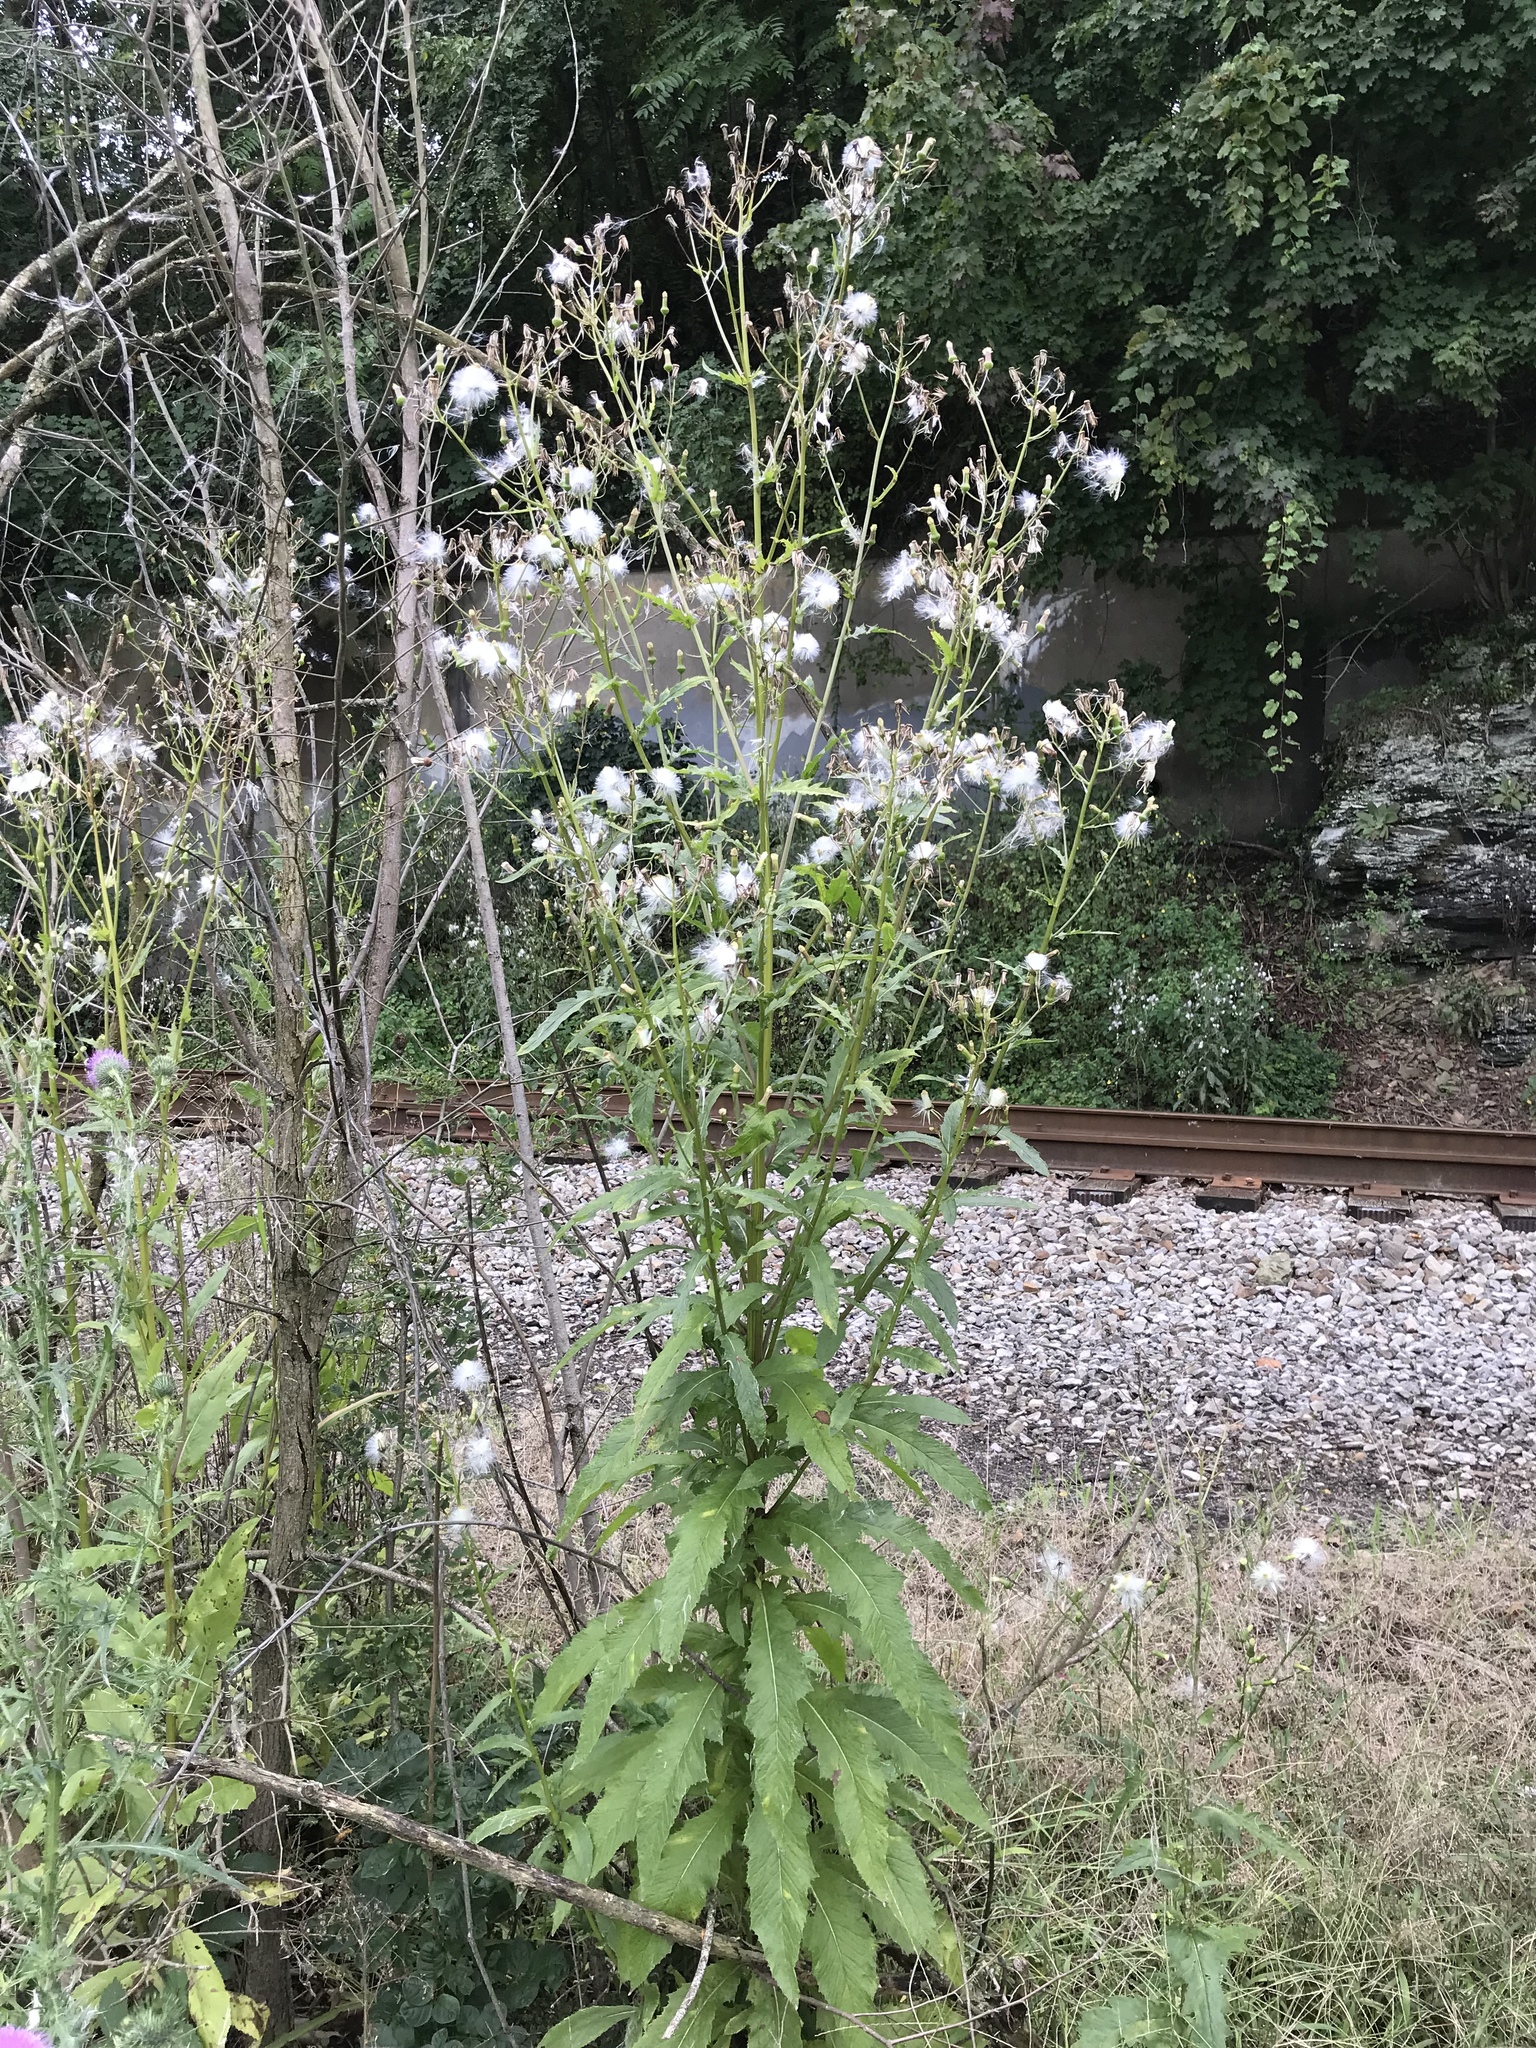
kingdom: Plantae
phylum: Tracheophyta
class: Magnoliopsida
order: Asterales
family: Asteraceae
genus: Erechtites
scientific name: Erechtites hieraciifolius
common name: American burnweed
